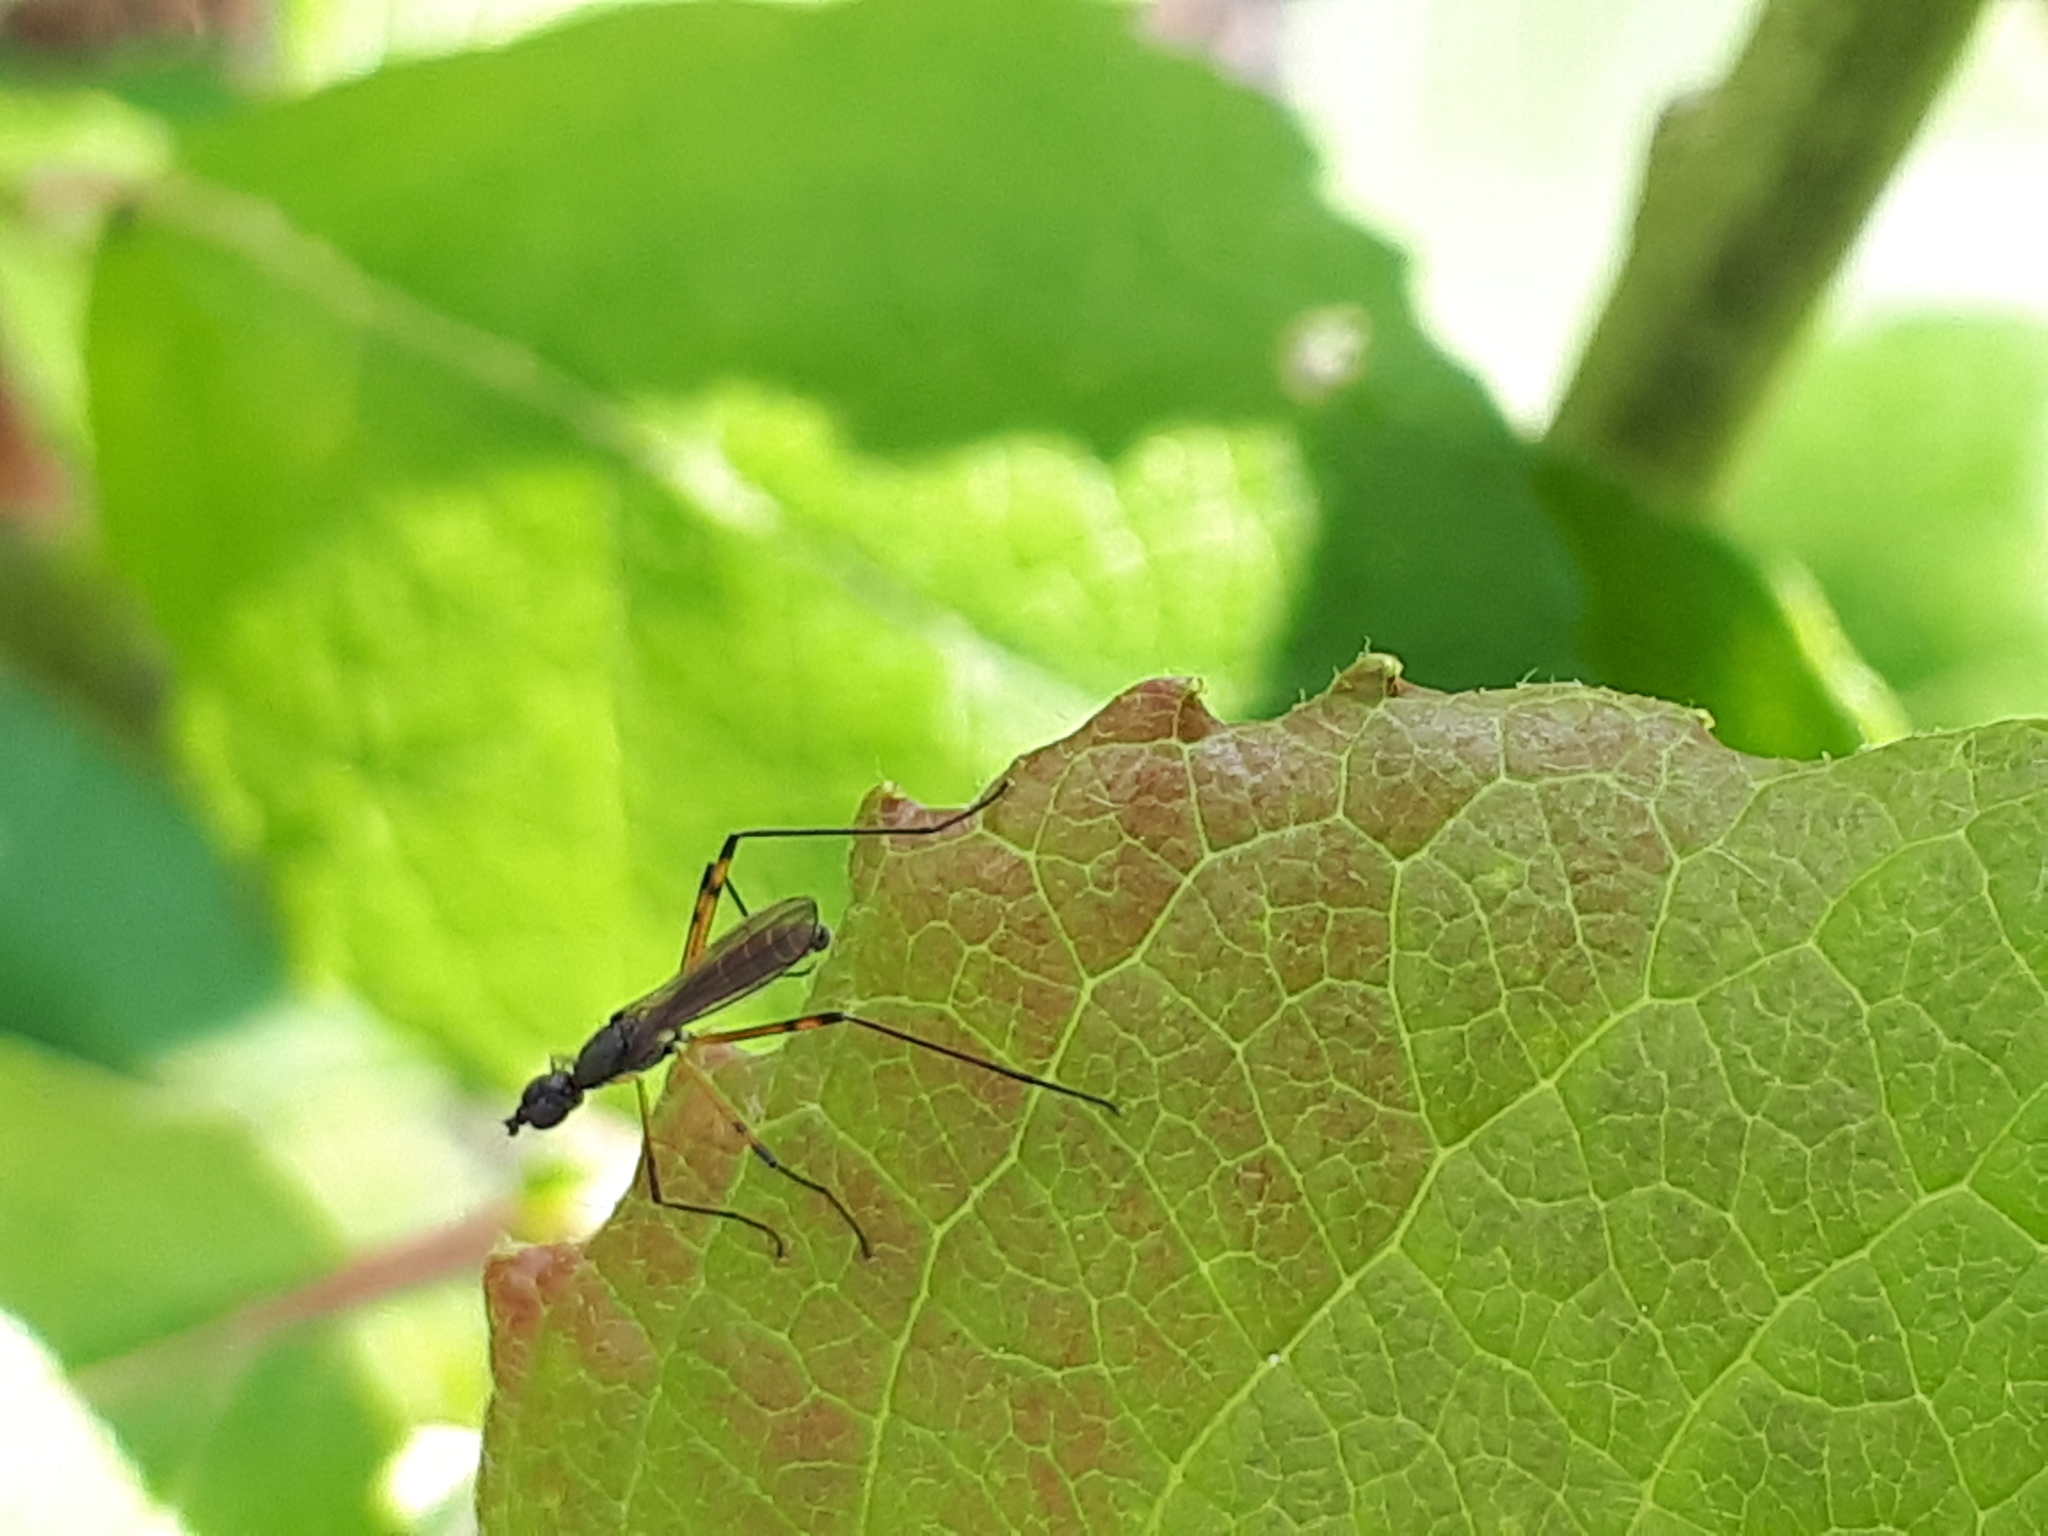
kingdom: Animalia
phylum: Arthropoda
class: Insecta
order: Diptera
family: Micropezidae
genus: Micropeza
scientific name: Micropeza corrigiolata
